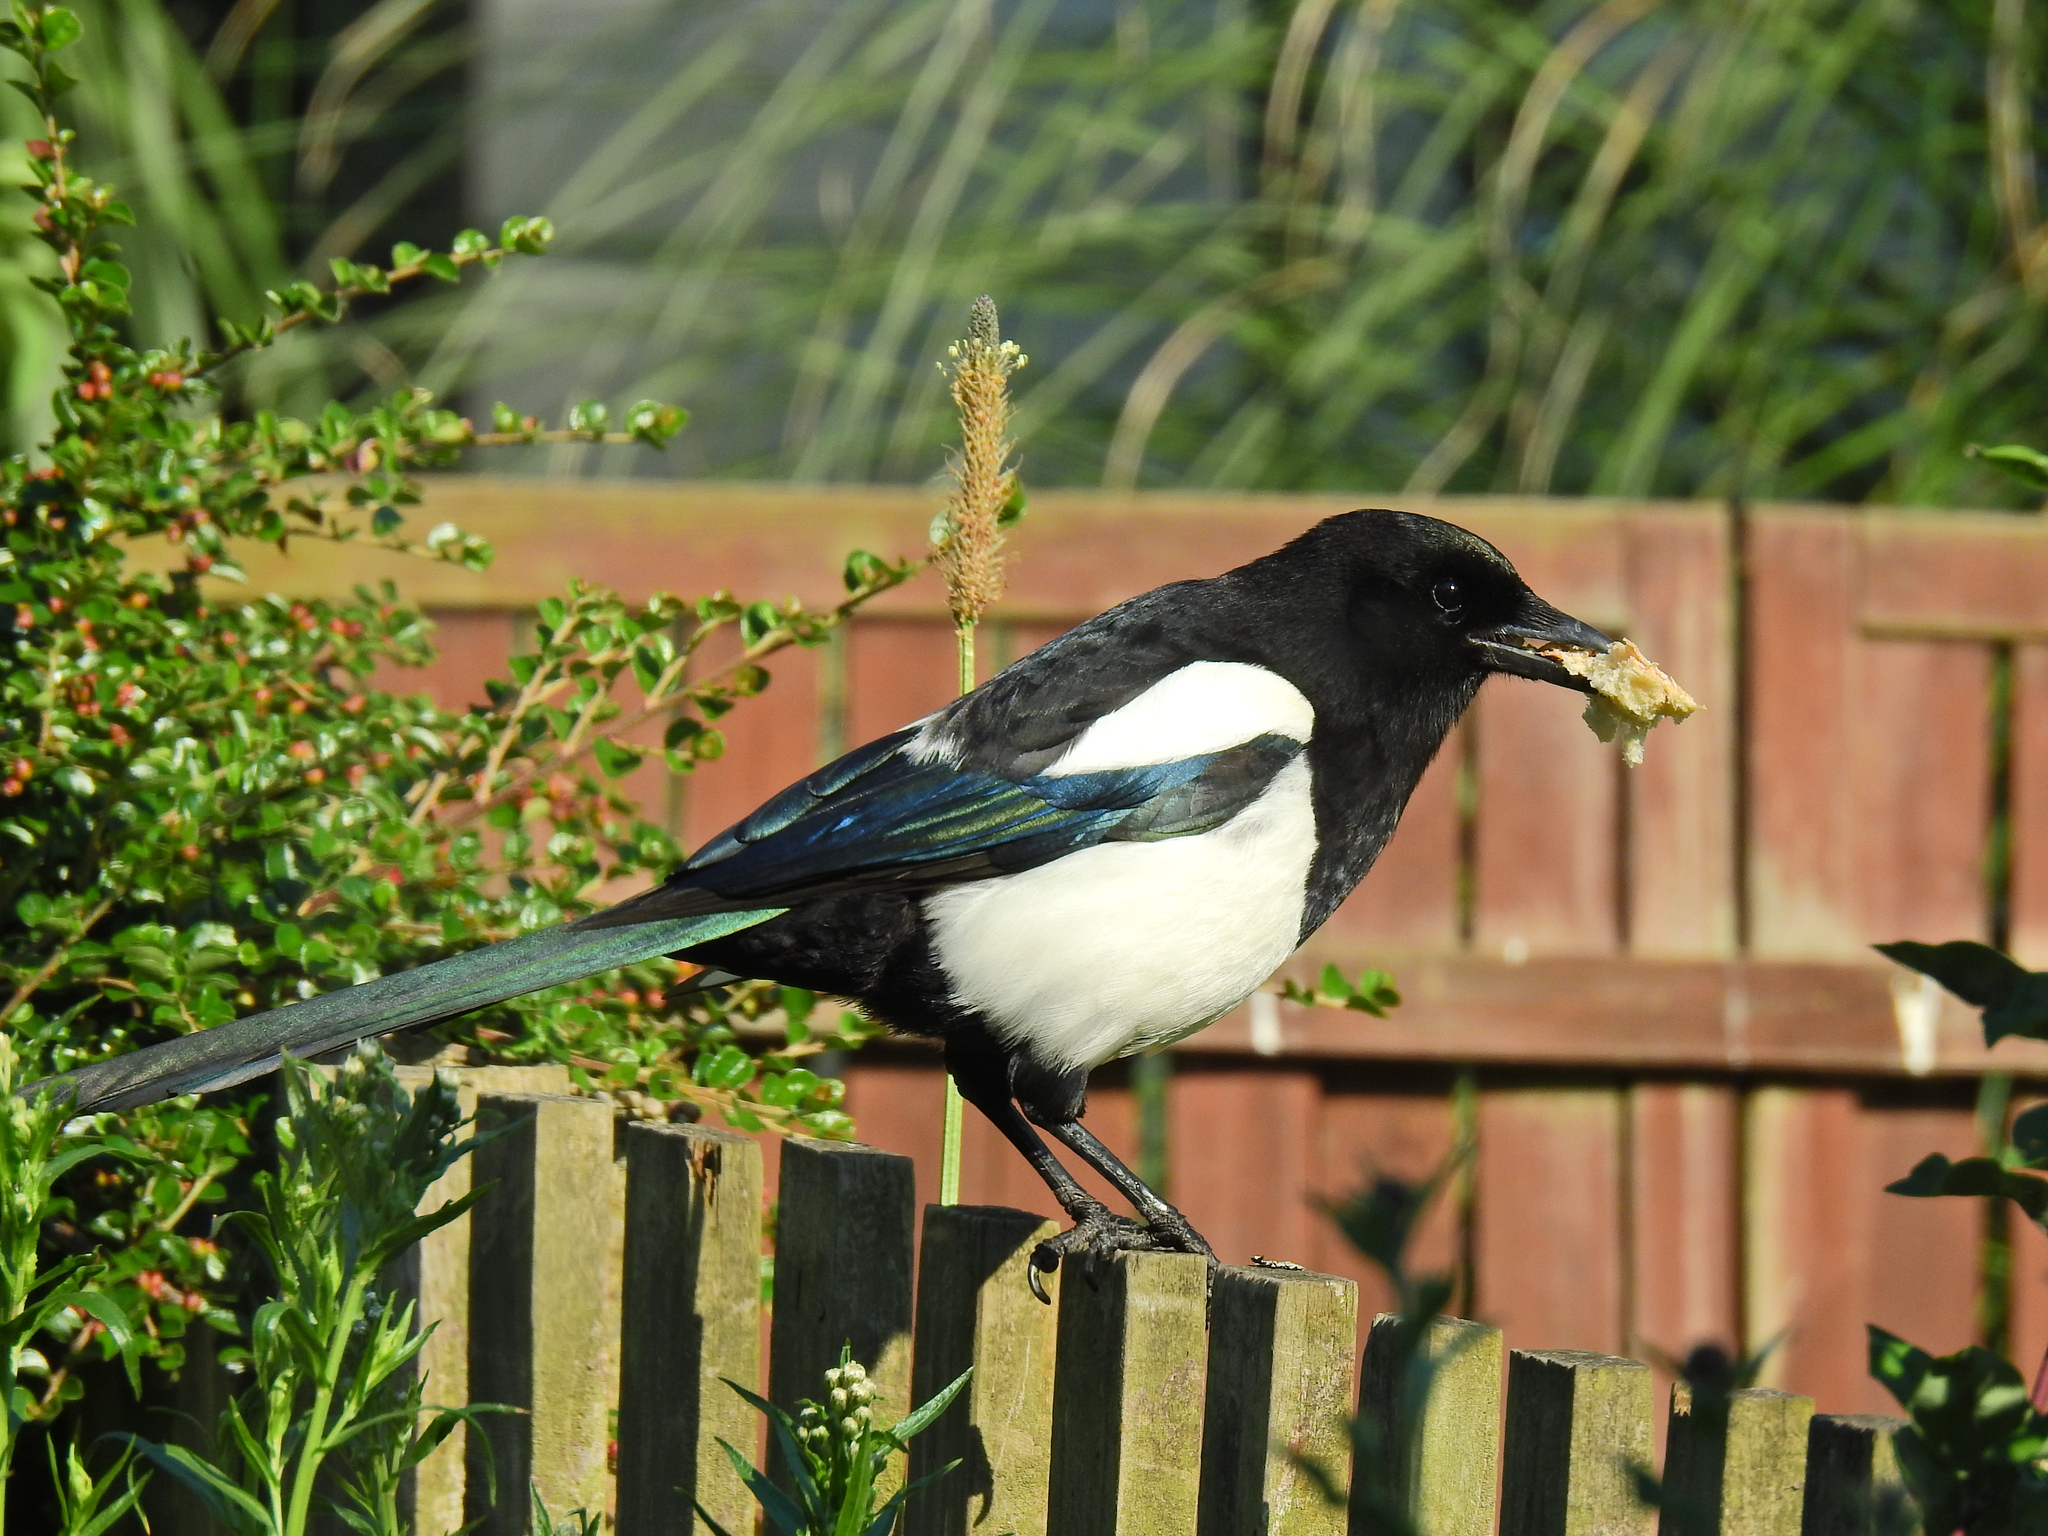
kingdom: Animalia
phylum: Chordata
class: Aves
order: Passeriformes
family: Corvidae
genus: Pica
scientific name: Pica pica
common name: Eurasian magpie
